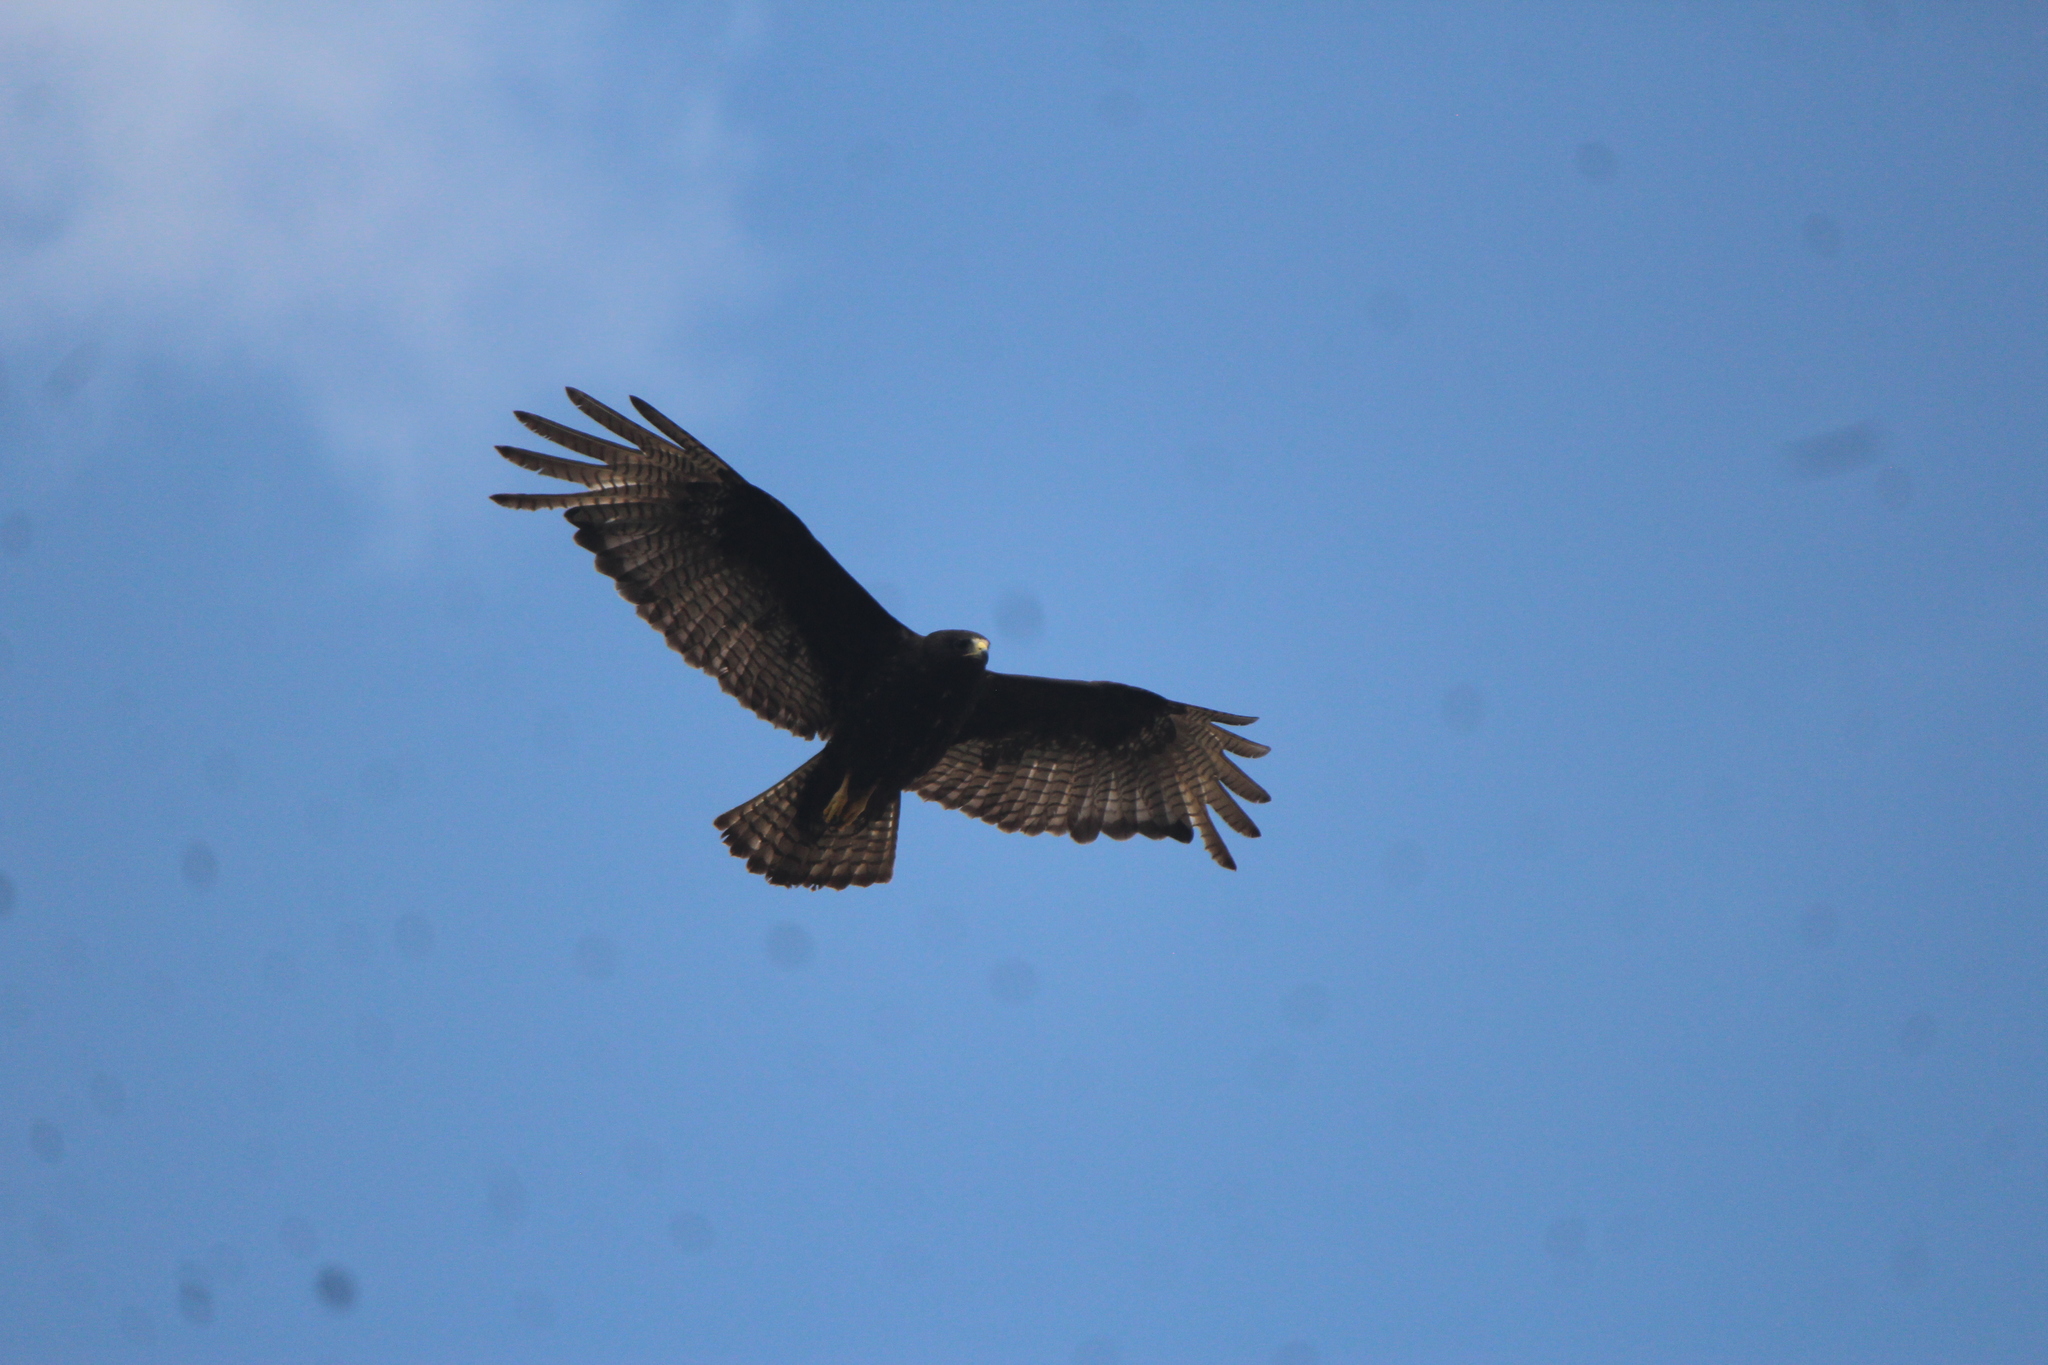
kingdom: Animalia
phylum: Chordata
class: Aves
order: Accipitriformes
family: Accipitridae
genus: Buteo
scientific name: Buteo albonotatus
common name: Zone-tailed hawk
